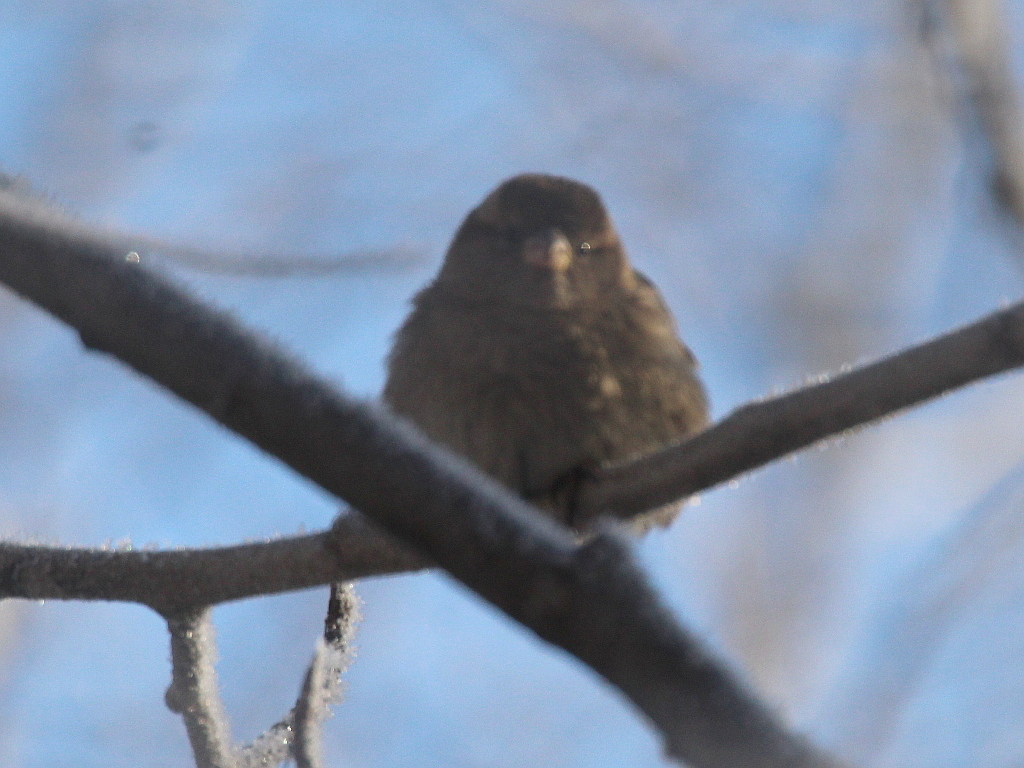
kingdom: Animalia
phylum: Chordata
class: Aves
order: Passeriformes
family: Passeridae
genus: Passer
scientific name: Passer domesticus
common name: House sparrow
